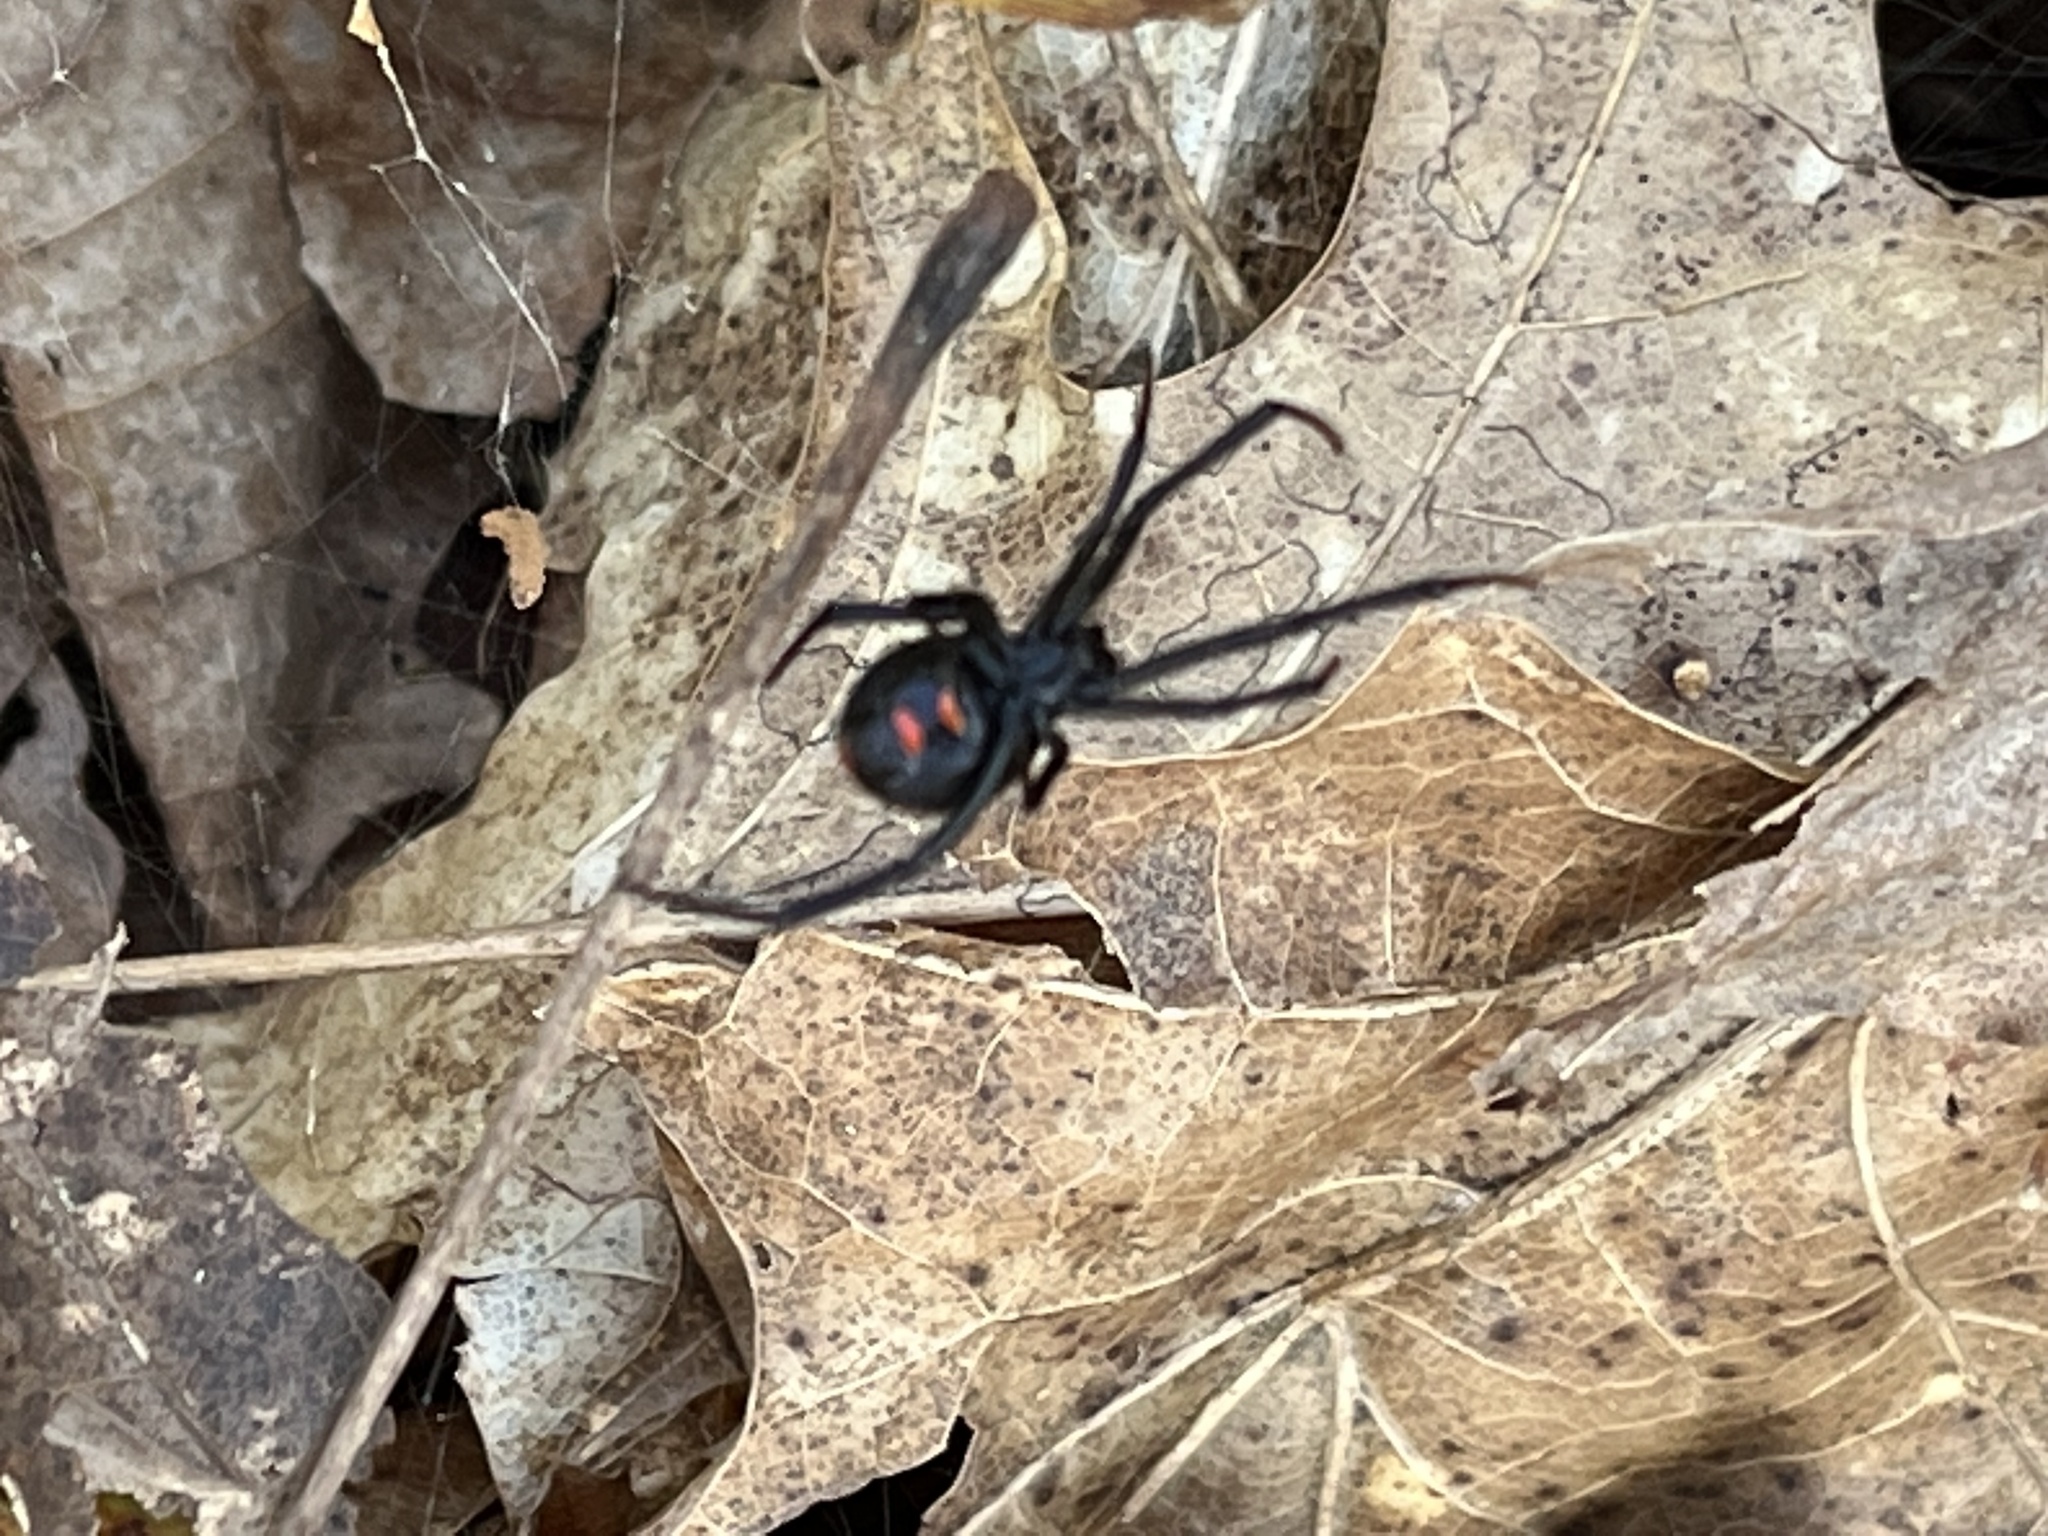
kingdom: Animalia
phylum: Arthropoda
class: Arachnida
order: Araneae
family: Theridiidae
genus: Latrodectus
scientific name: Latrodectus variolus
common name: Northern black widow
